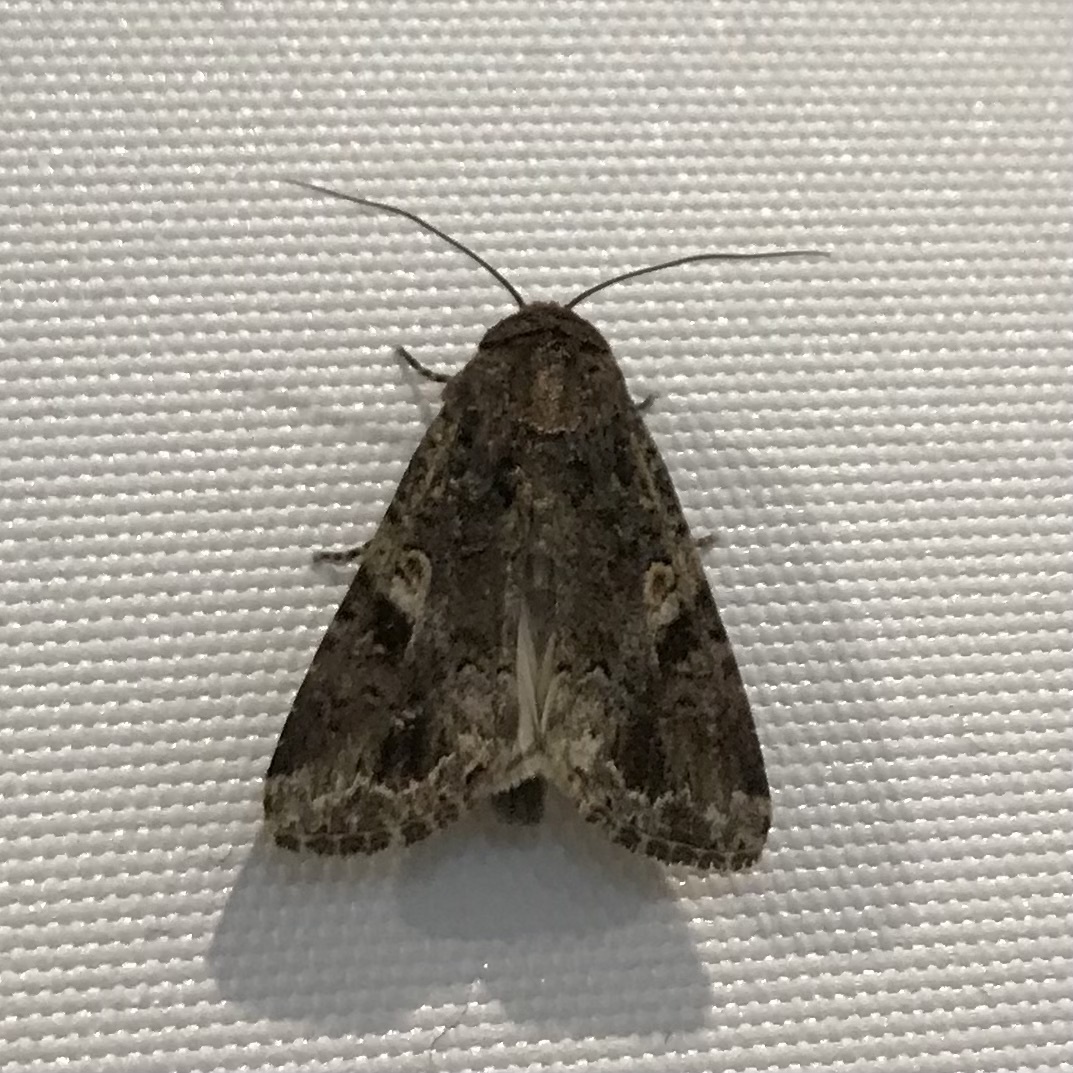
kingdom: Animalia
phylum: Arthropoda
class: Insecta
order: Lepidoptera
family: Noctuidae
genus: Spodoptera
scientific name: Spodoptera mauritia
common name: Lawn armyworm
